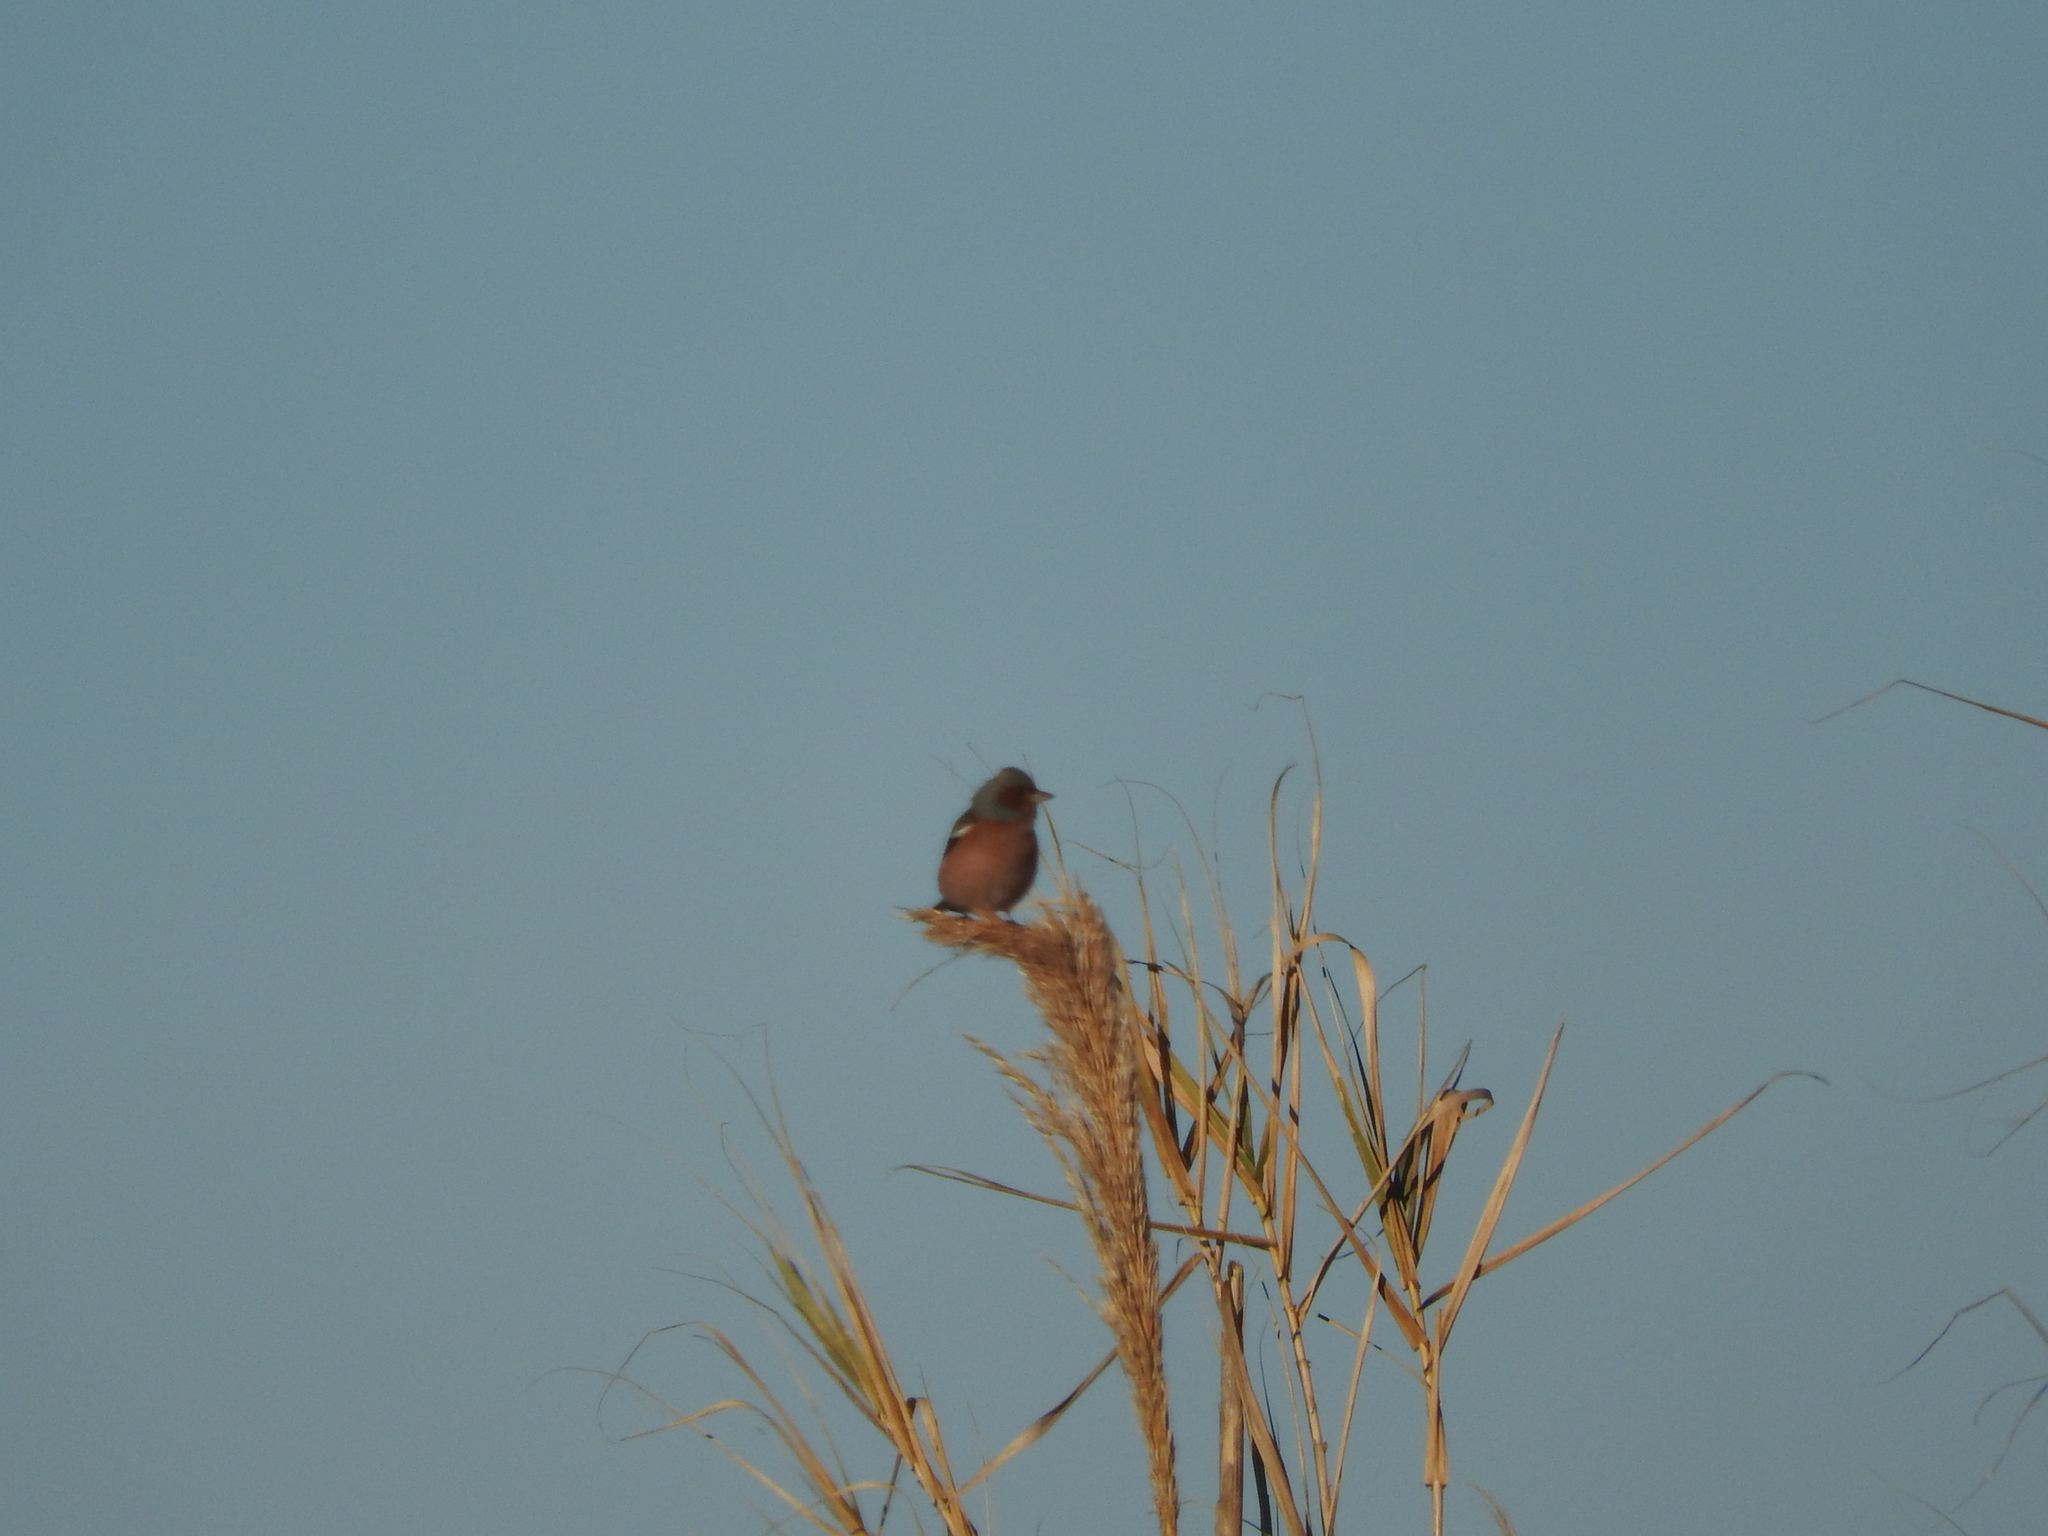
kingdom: Animalia
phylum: Chordata
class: Aves
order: Passeriformes
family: Fringillidae
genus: Fringilla
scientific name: Fringilla coelebs
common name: Common chaffinch
